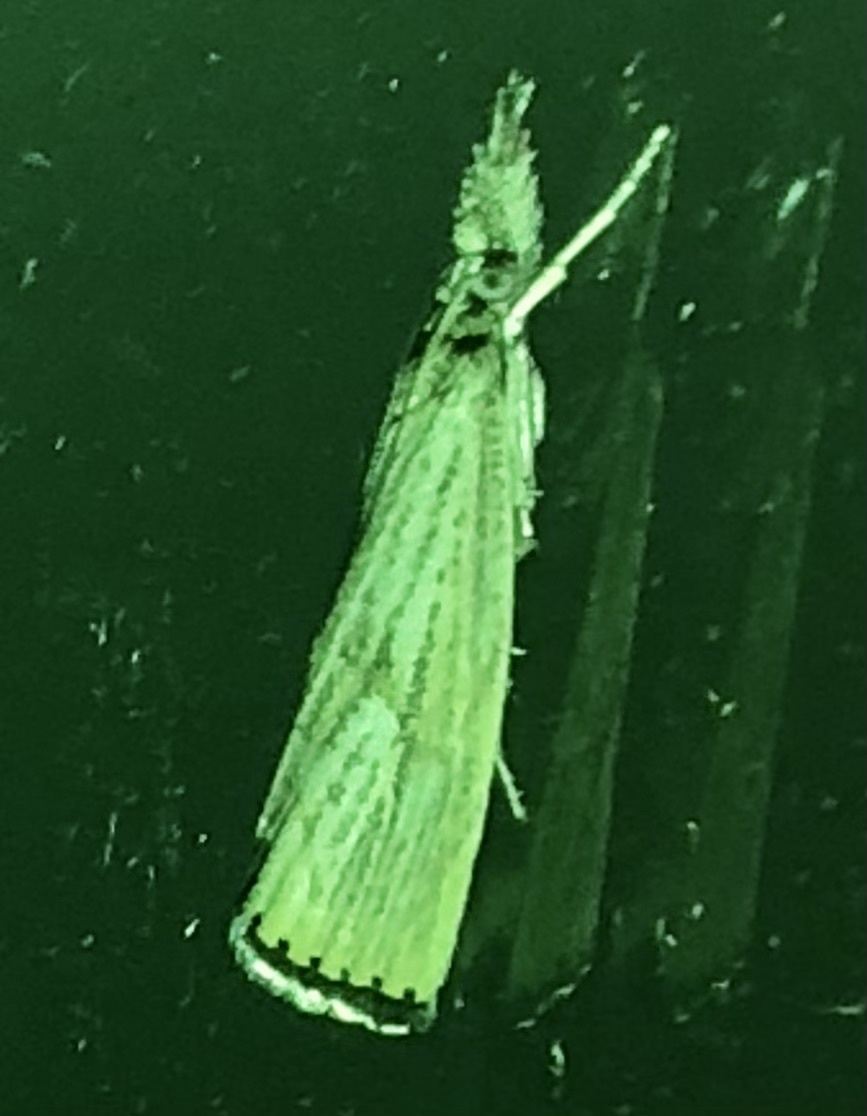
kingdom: Animalia
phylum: Arthropoda
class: Insecta
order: Lepidoptera
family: Crambidae
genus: Agriphila
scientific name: Agriphila ruricolellus
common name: Lesser vagabond sod webworm
